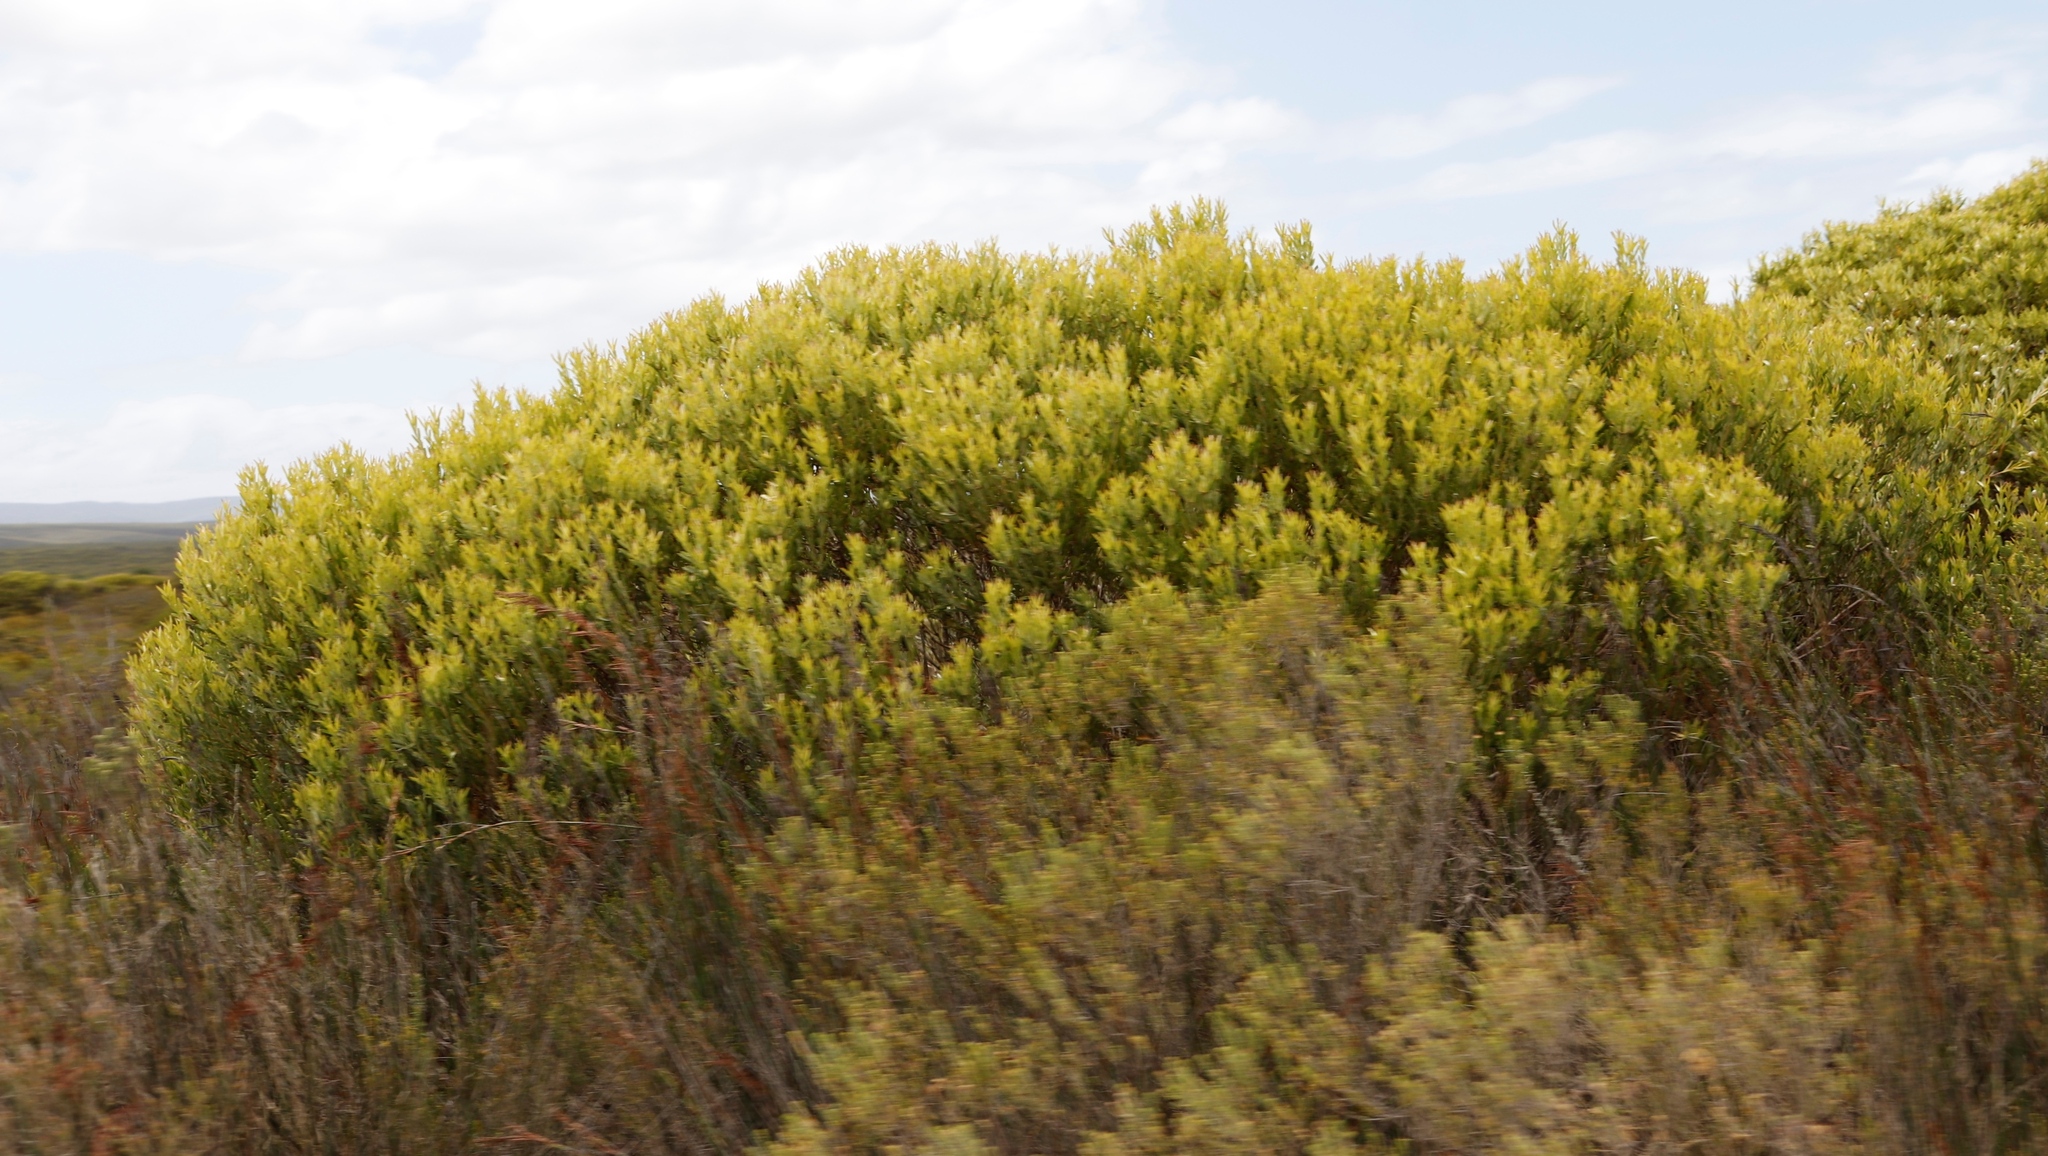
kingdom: Plantae
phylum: Tracheophyta
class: Magnoliopsida
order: Proteales
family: Proteaceae
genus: Leucadendron
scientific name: Leucadendron meridianum
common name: Limestone conebush
